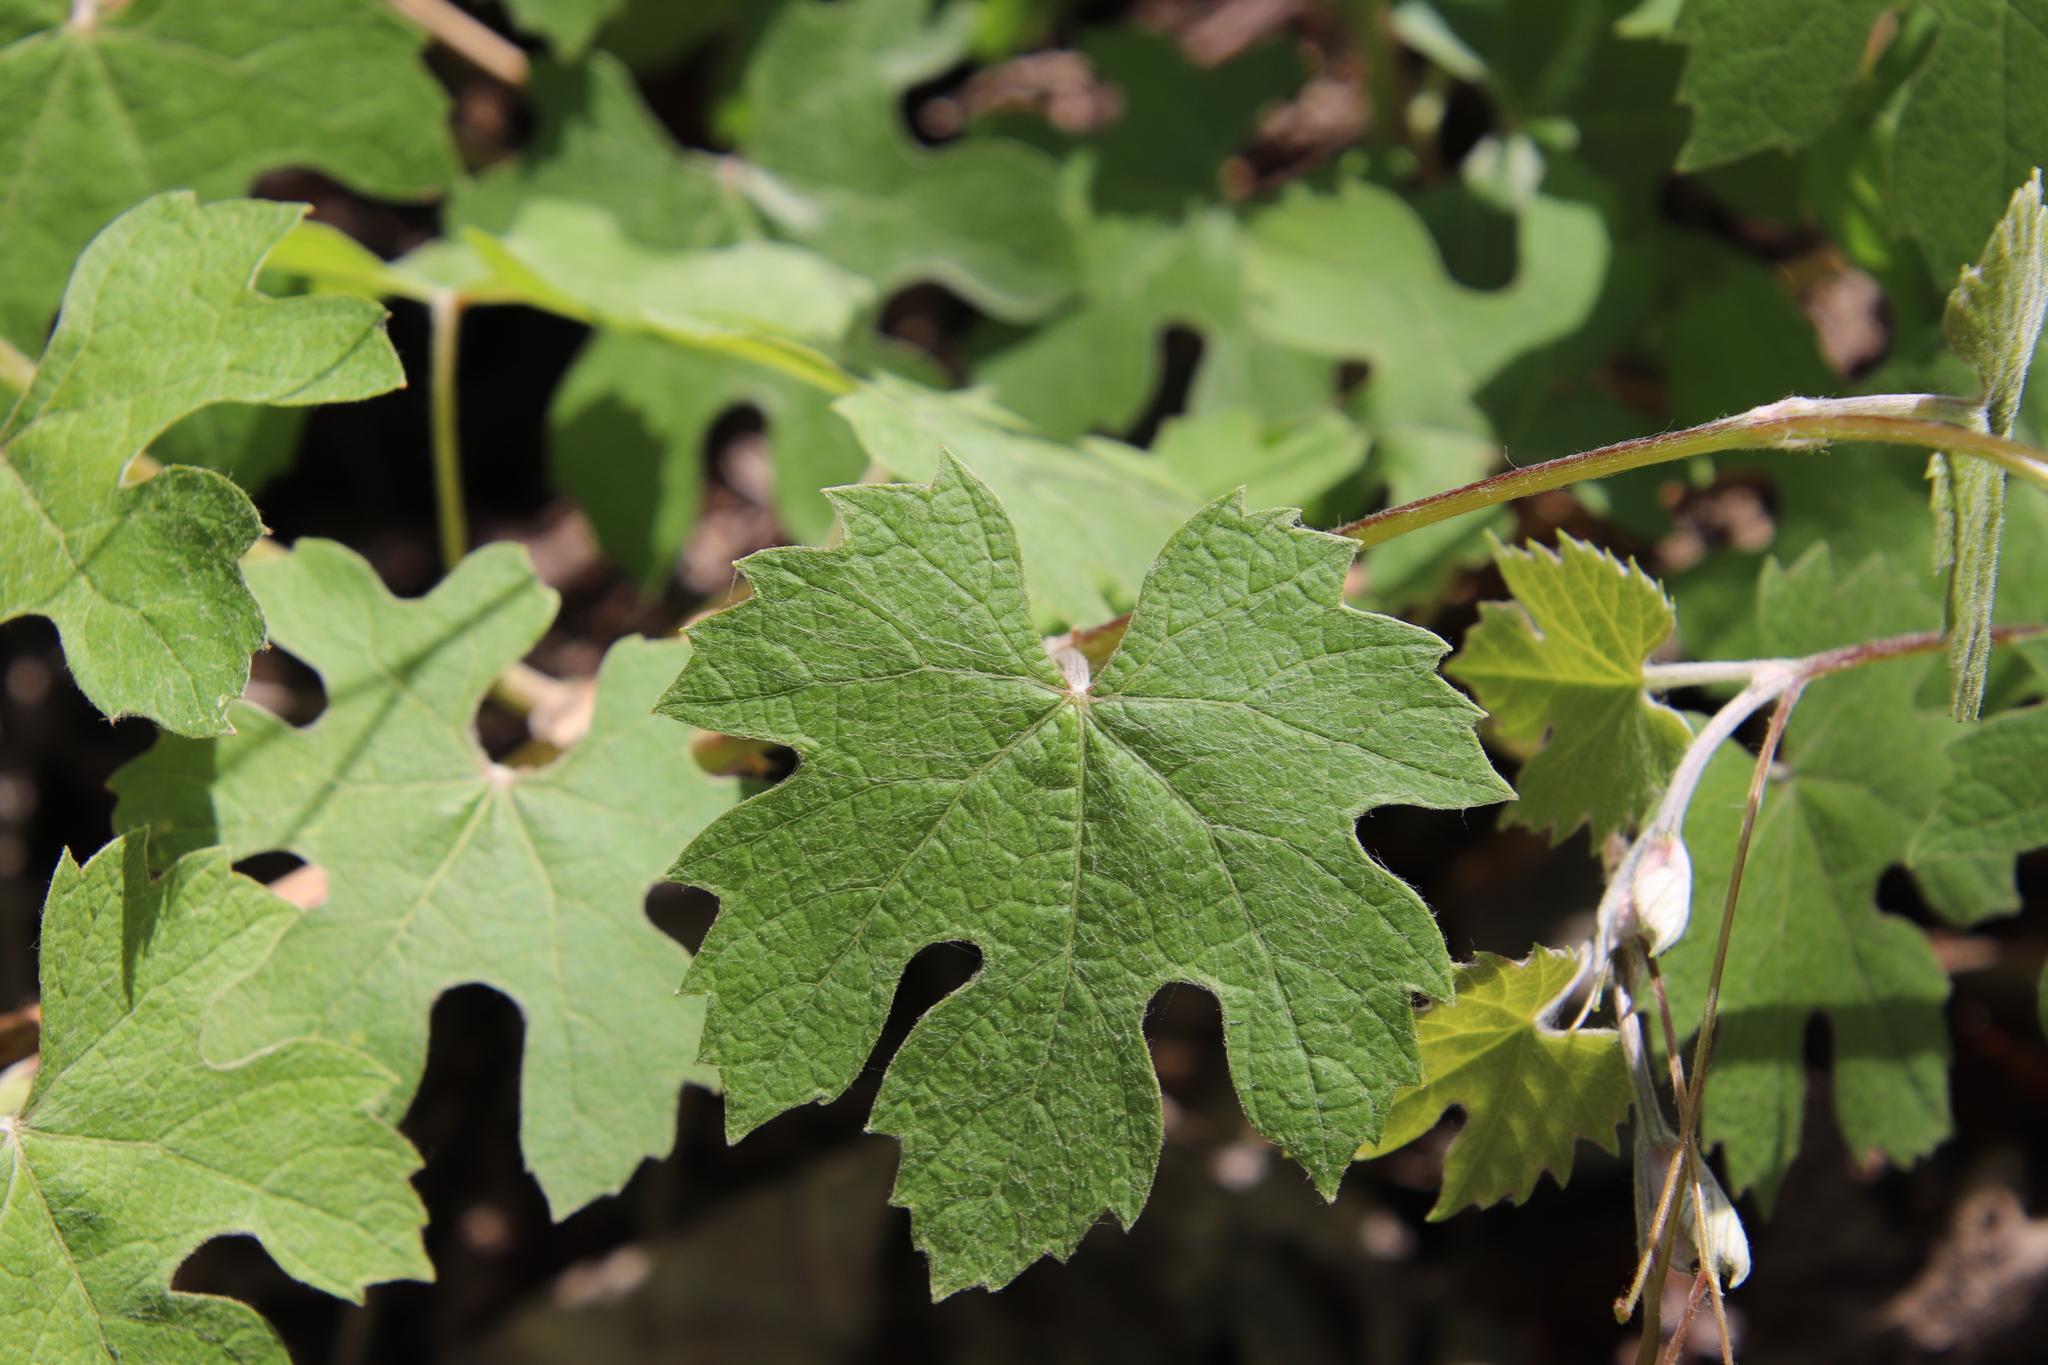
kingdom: Plantae
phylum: Tracheophyta
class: Magnoliopsida
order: Vitales
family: Vitaceae
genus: Vitis
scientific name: Vitis girdiana
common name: Desert wild grape
